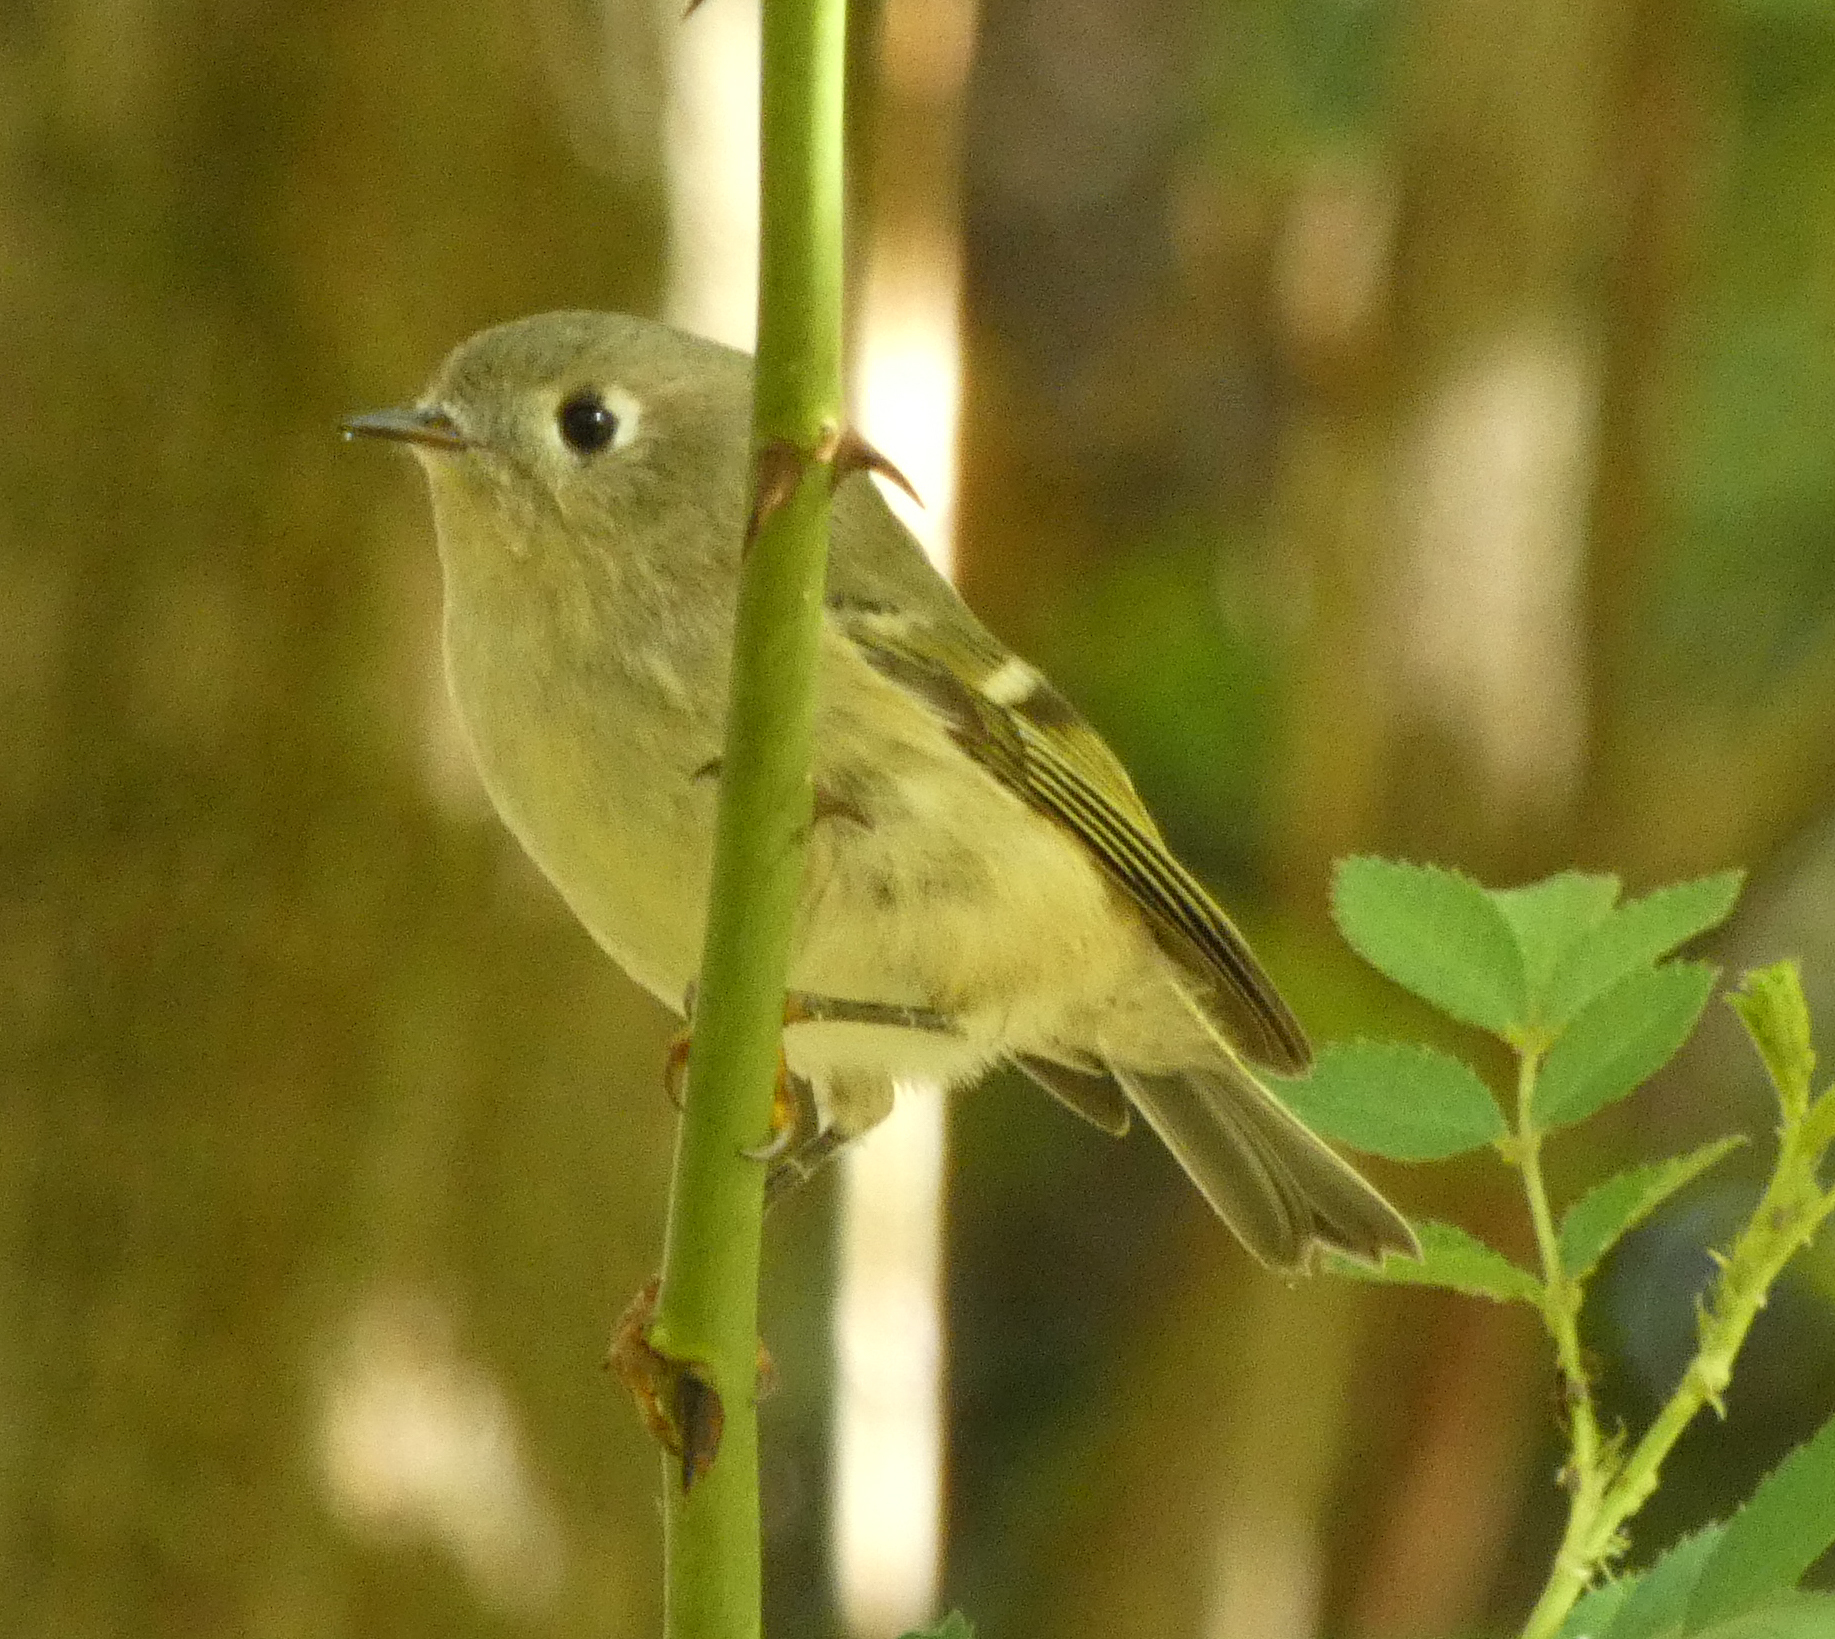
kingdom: Animalia
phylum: Chordata
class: Aves
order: Passeriformes
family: Regulidae
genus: Regulus
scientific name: Regulus calendula
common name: Ruby-crowned kinglet
